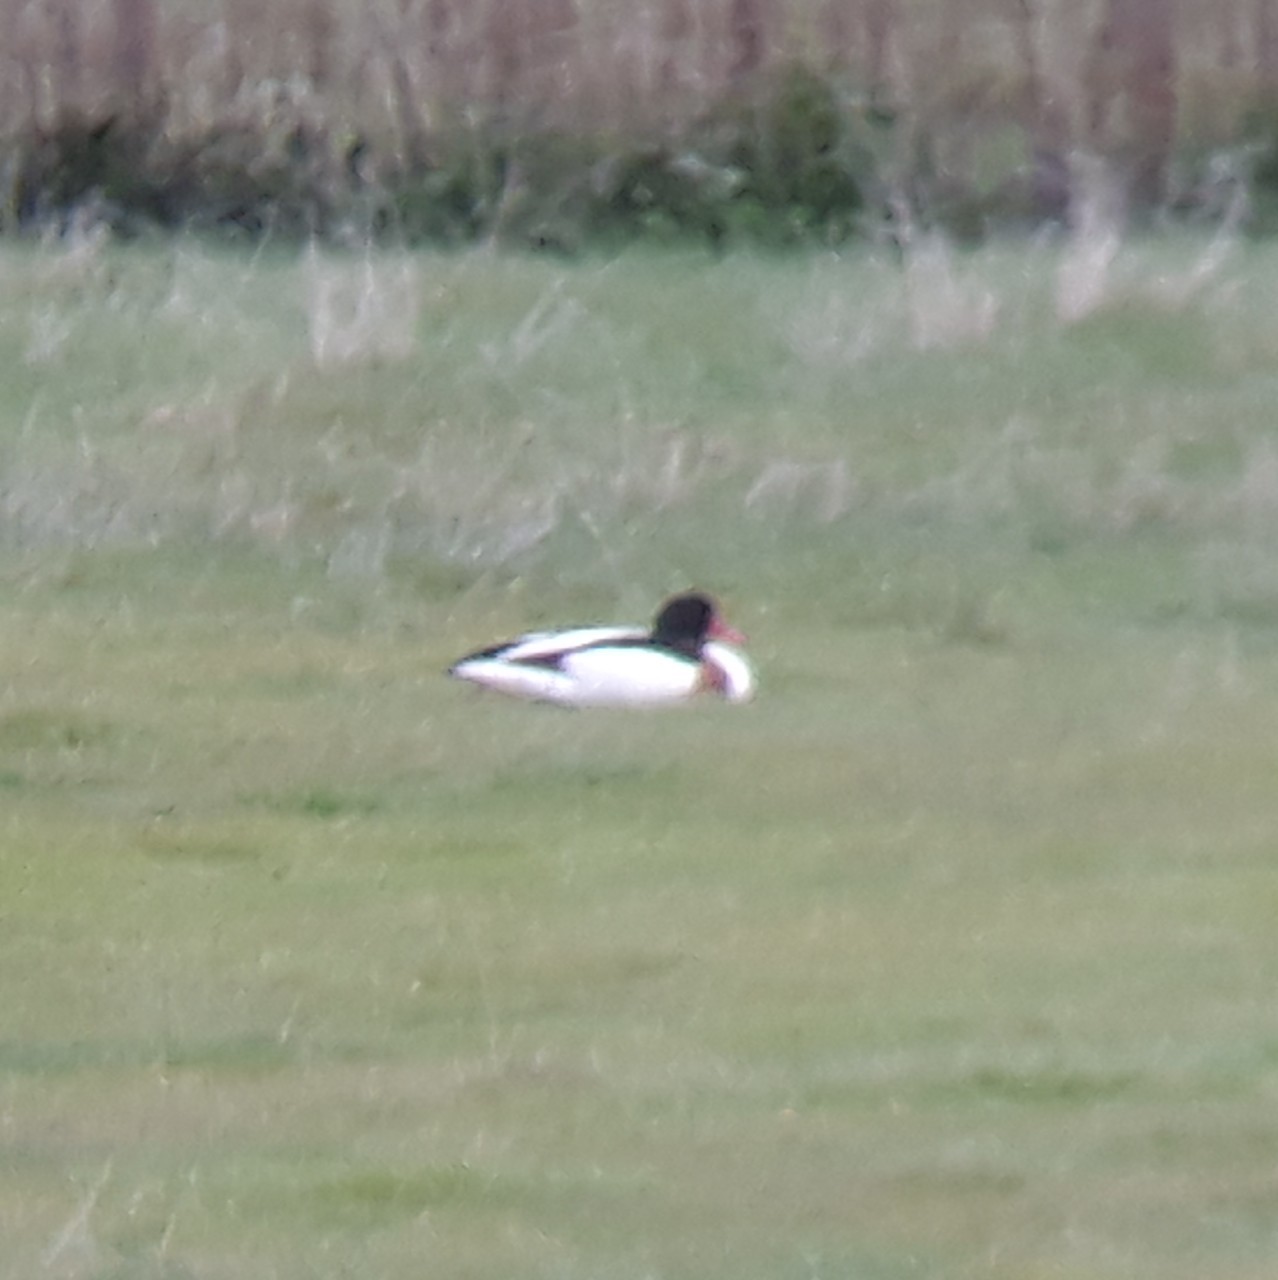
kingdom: Animalia
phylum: Chordata
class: Aves
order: Anseriformes
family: Anatidae
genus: Tadorna
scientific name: Tadorna tadorna
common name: Common shelduck
